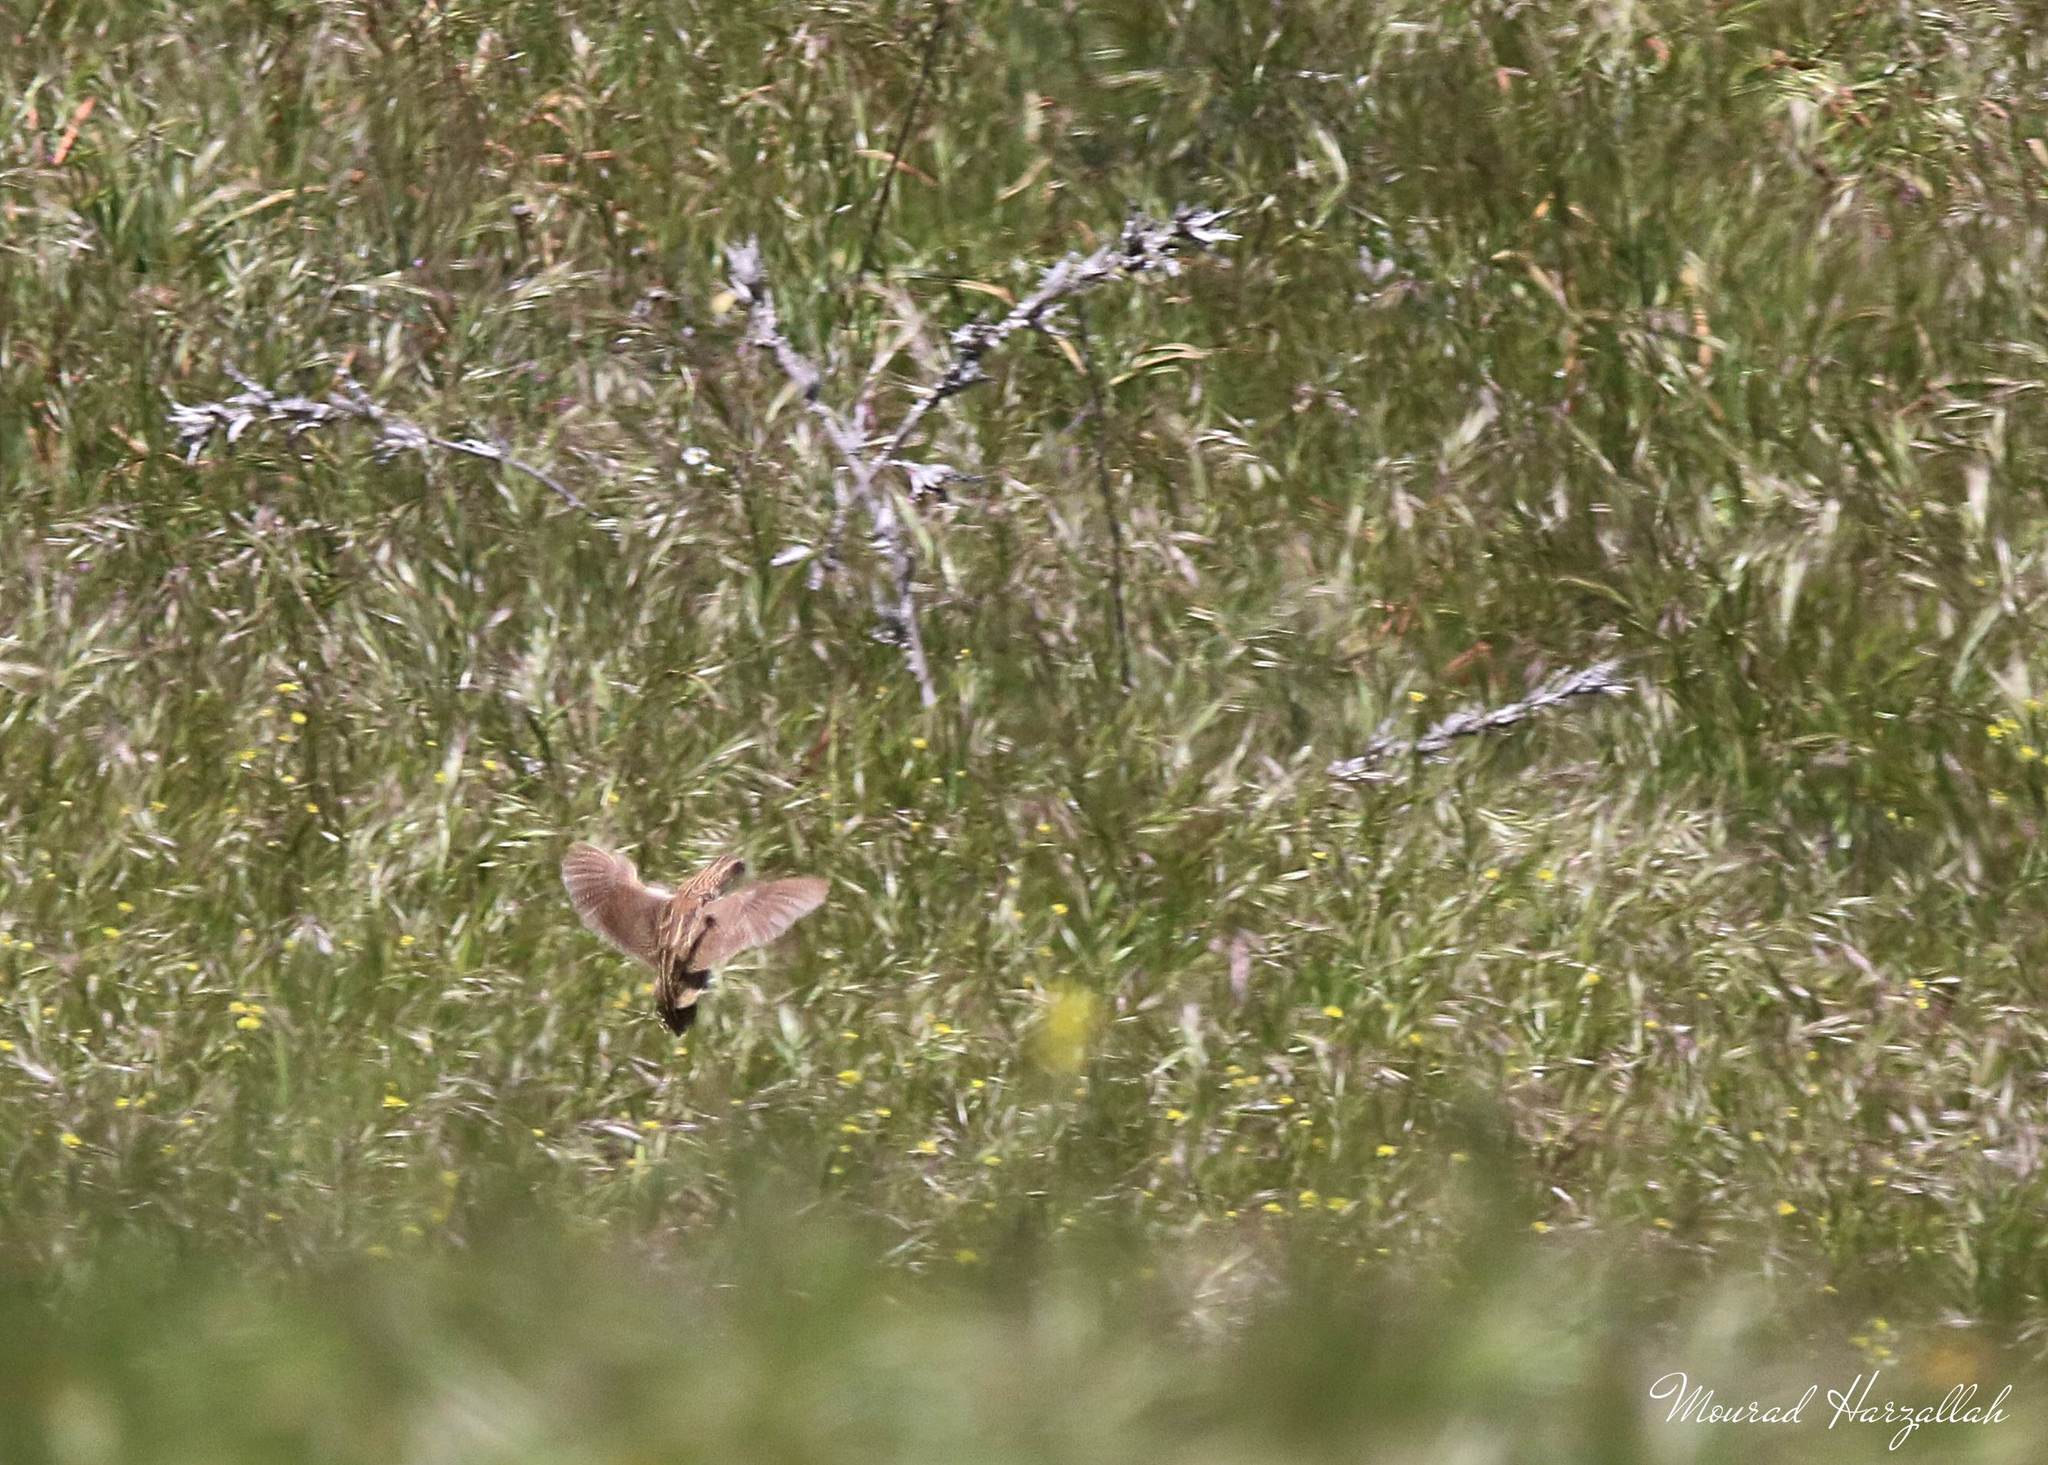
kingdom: Animalia
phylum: Chordata
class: Aves
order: Galliformes
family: Phasianidae
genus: Coturnix
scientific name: Coturnix coturnix
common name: Common quail
